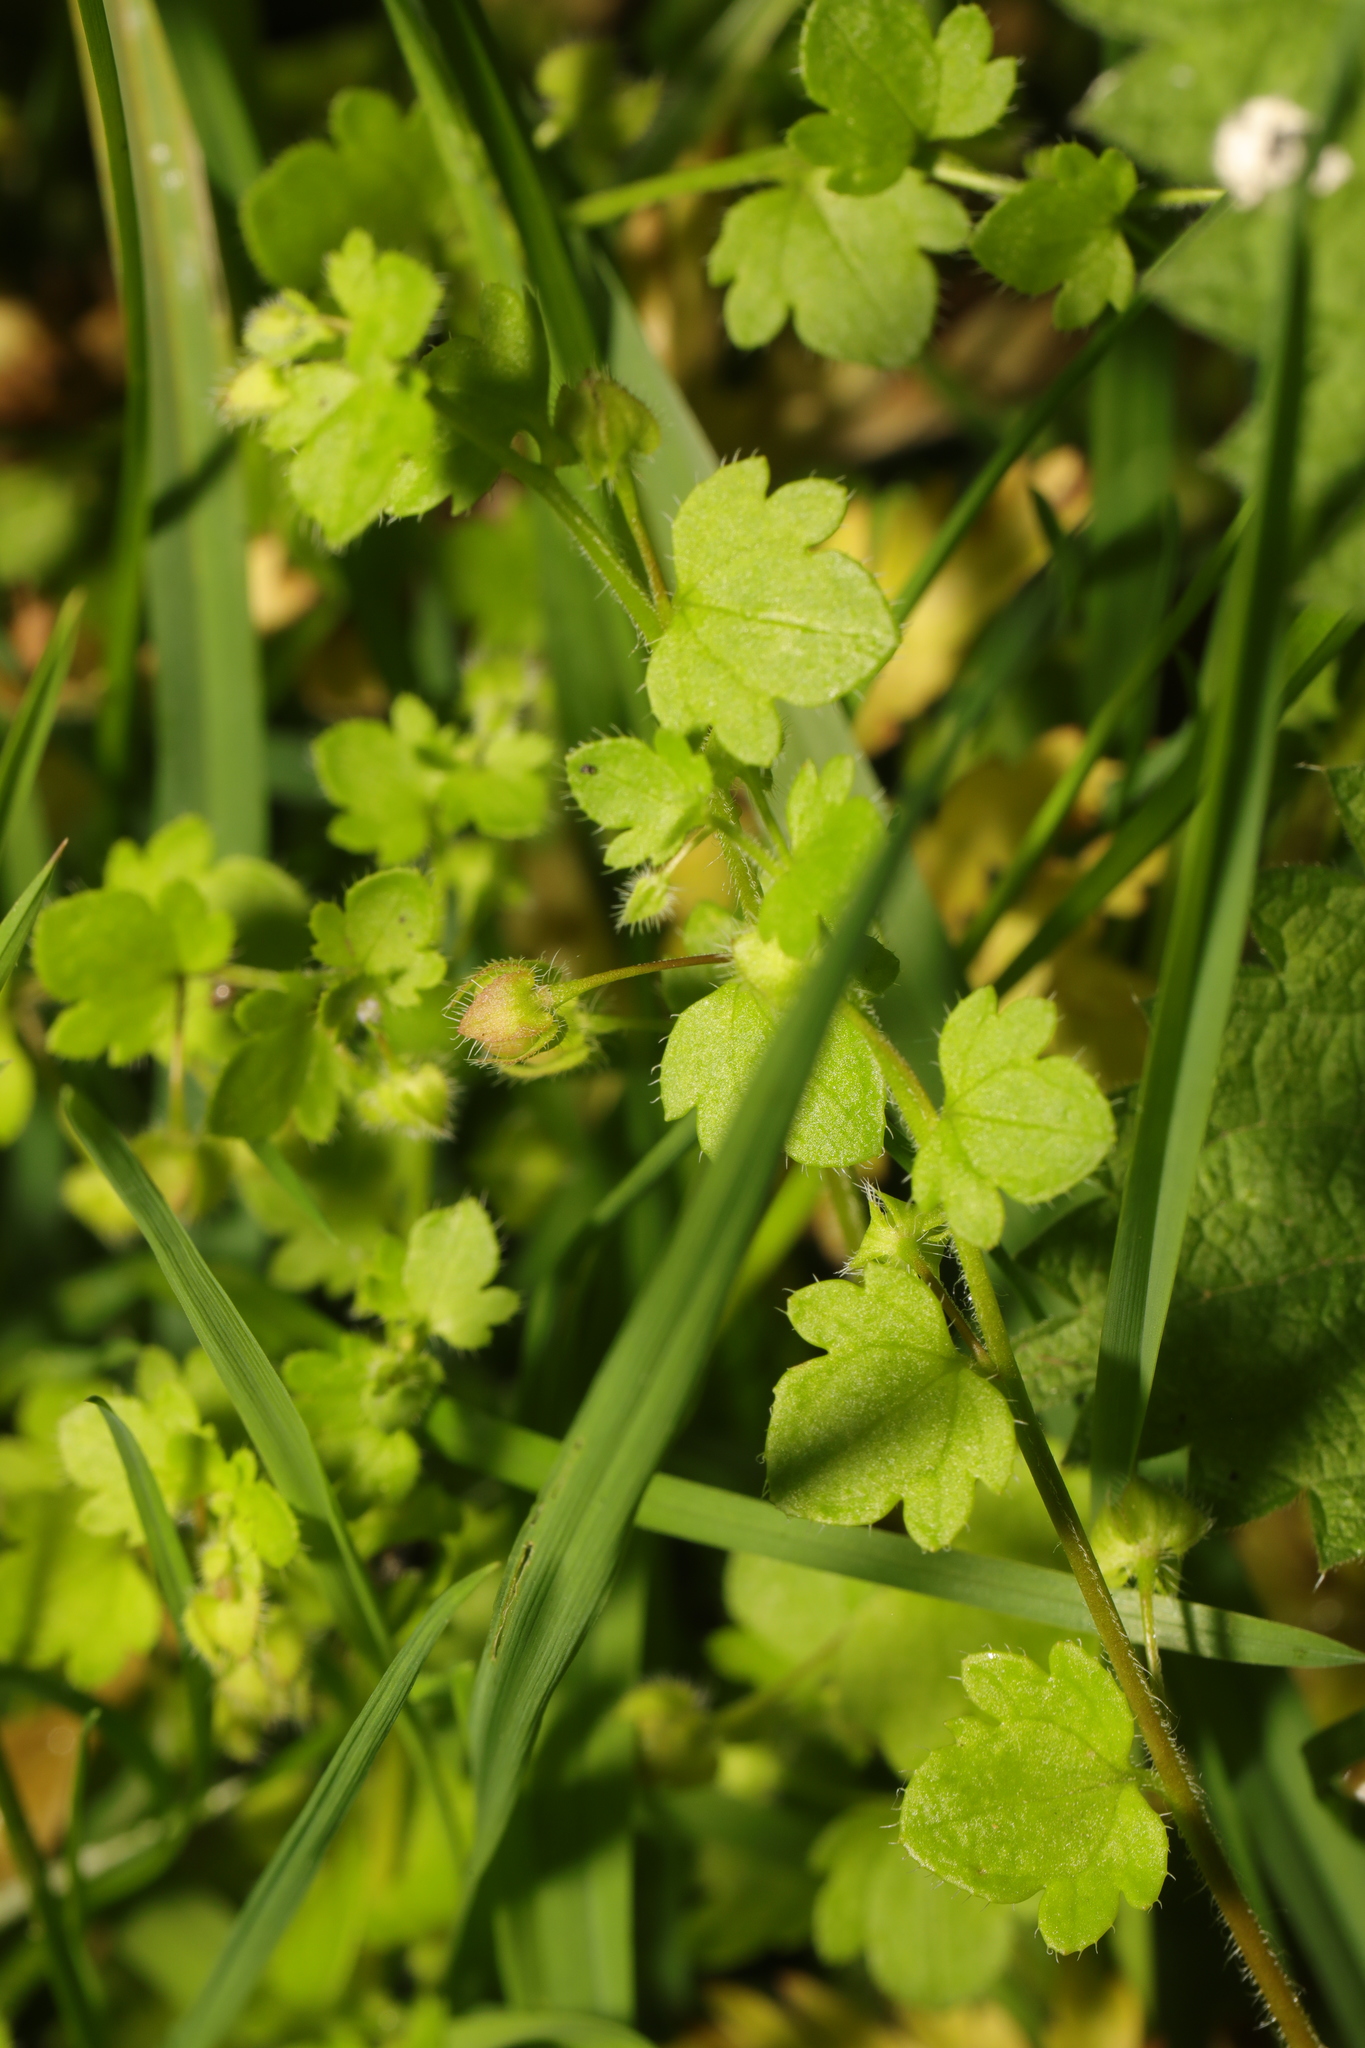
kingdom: Plantae
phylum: Tracheophyta
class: Magnoliopsida
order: Lamiales
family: Plantaginaceae
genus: Veronica
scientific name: Veronica sublobata
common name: False ivy-leaved speedwell
